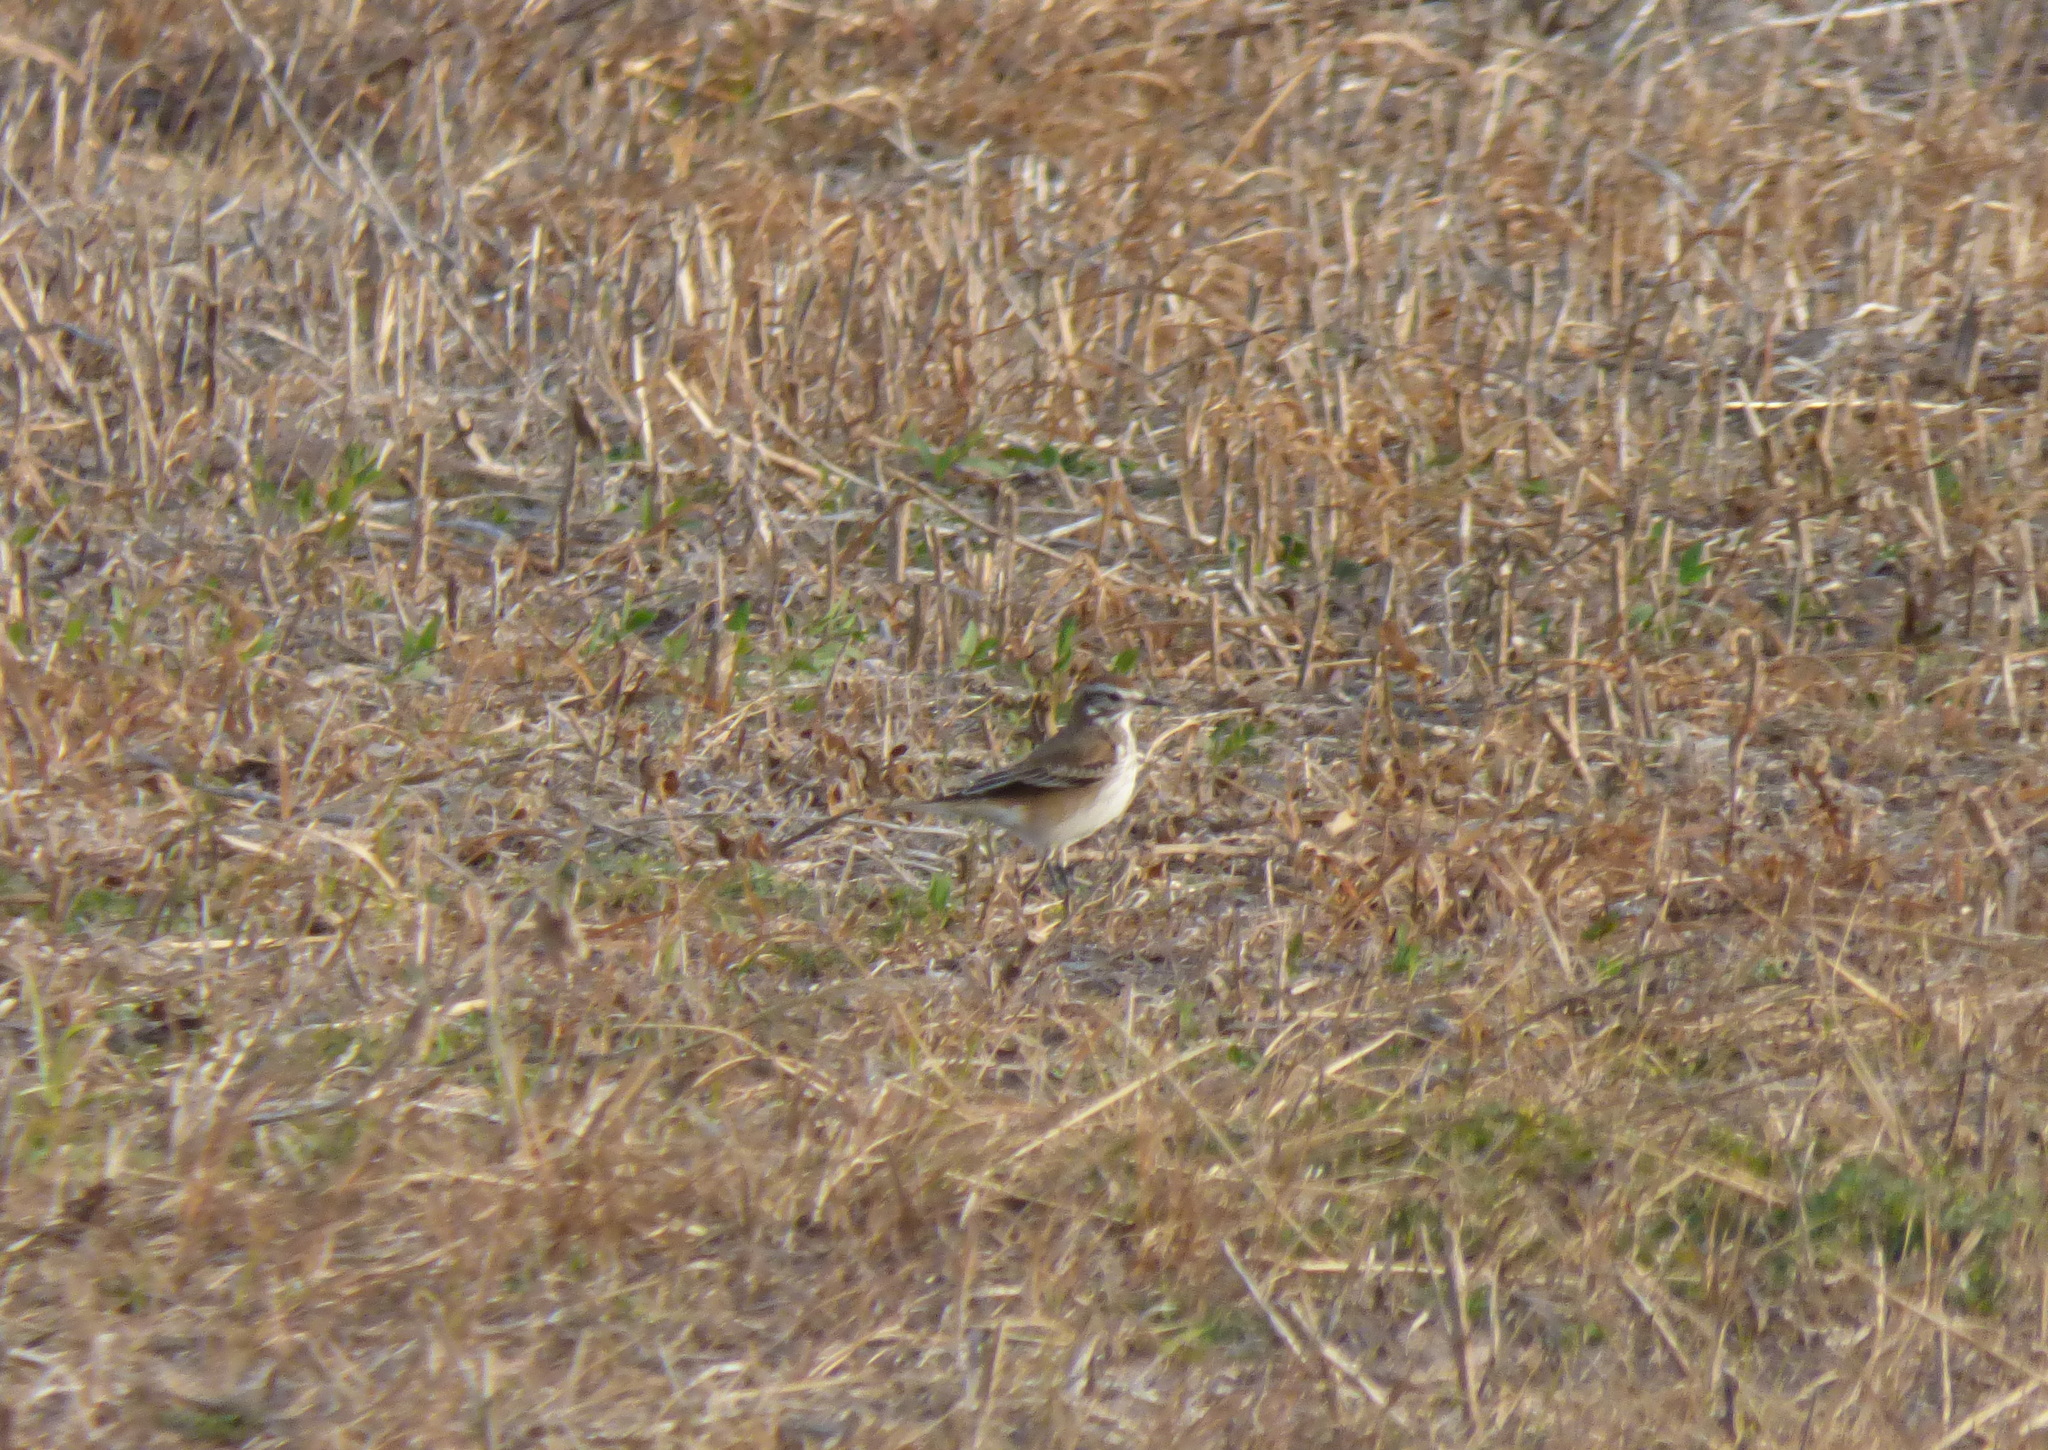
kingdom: Animalia
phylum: Chordata
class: Aves
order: Passeriformes
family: Tyrannidae
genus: Xolmis
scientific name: Xolmis rubetra
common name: Rusty-backed monjita
